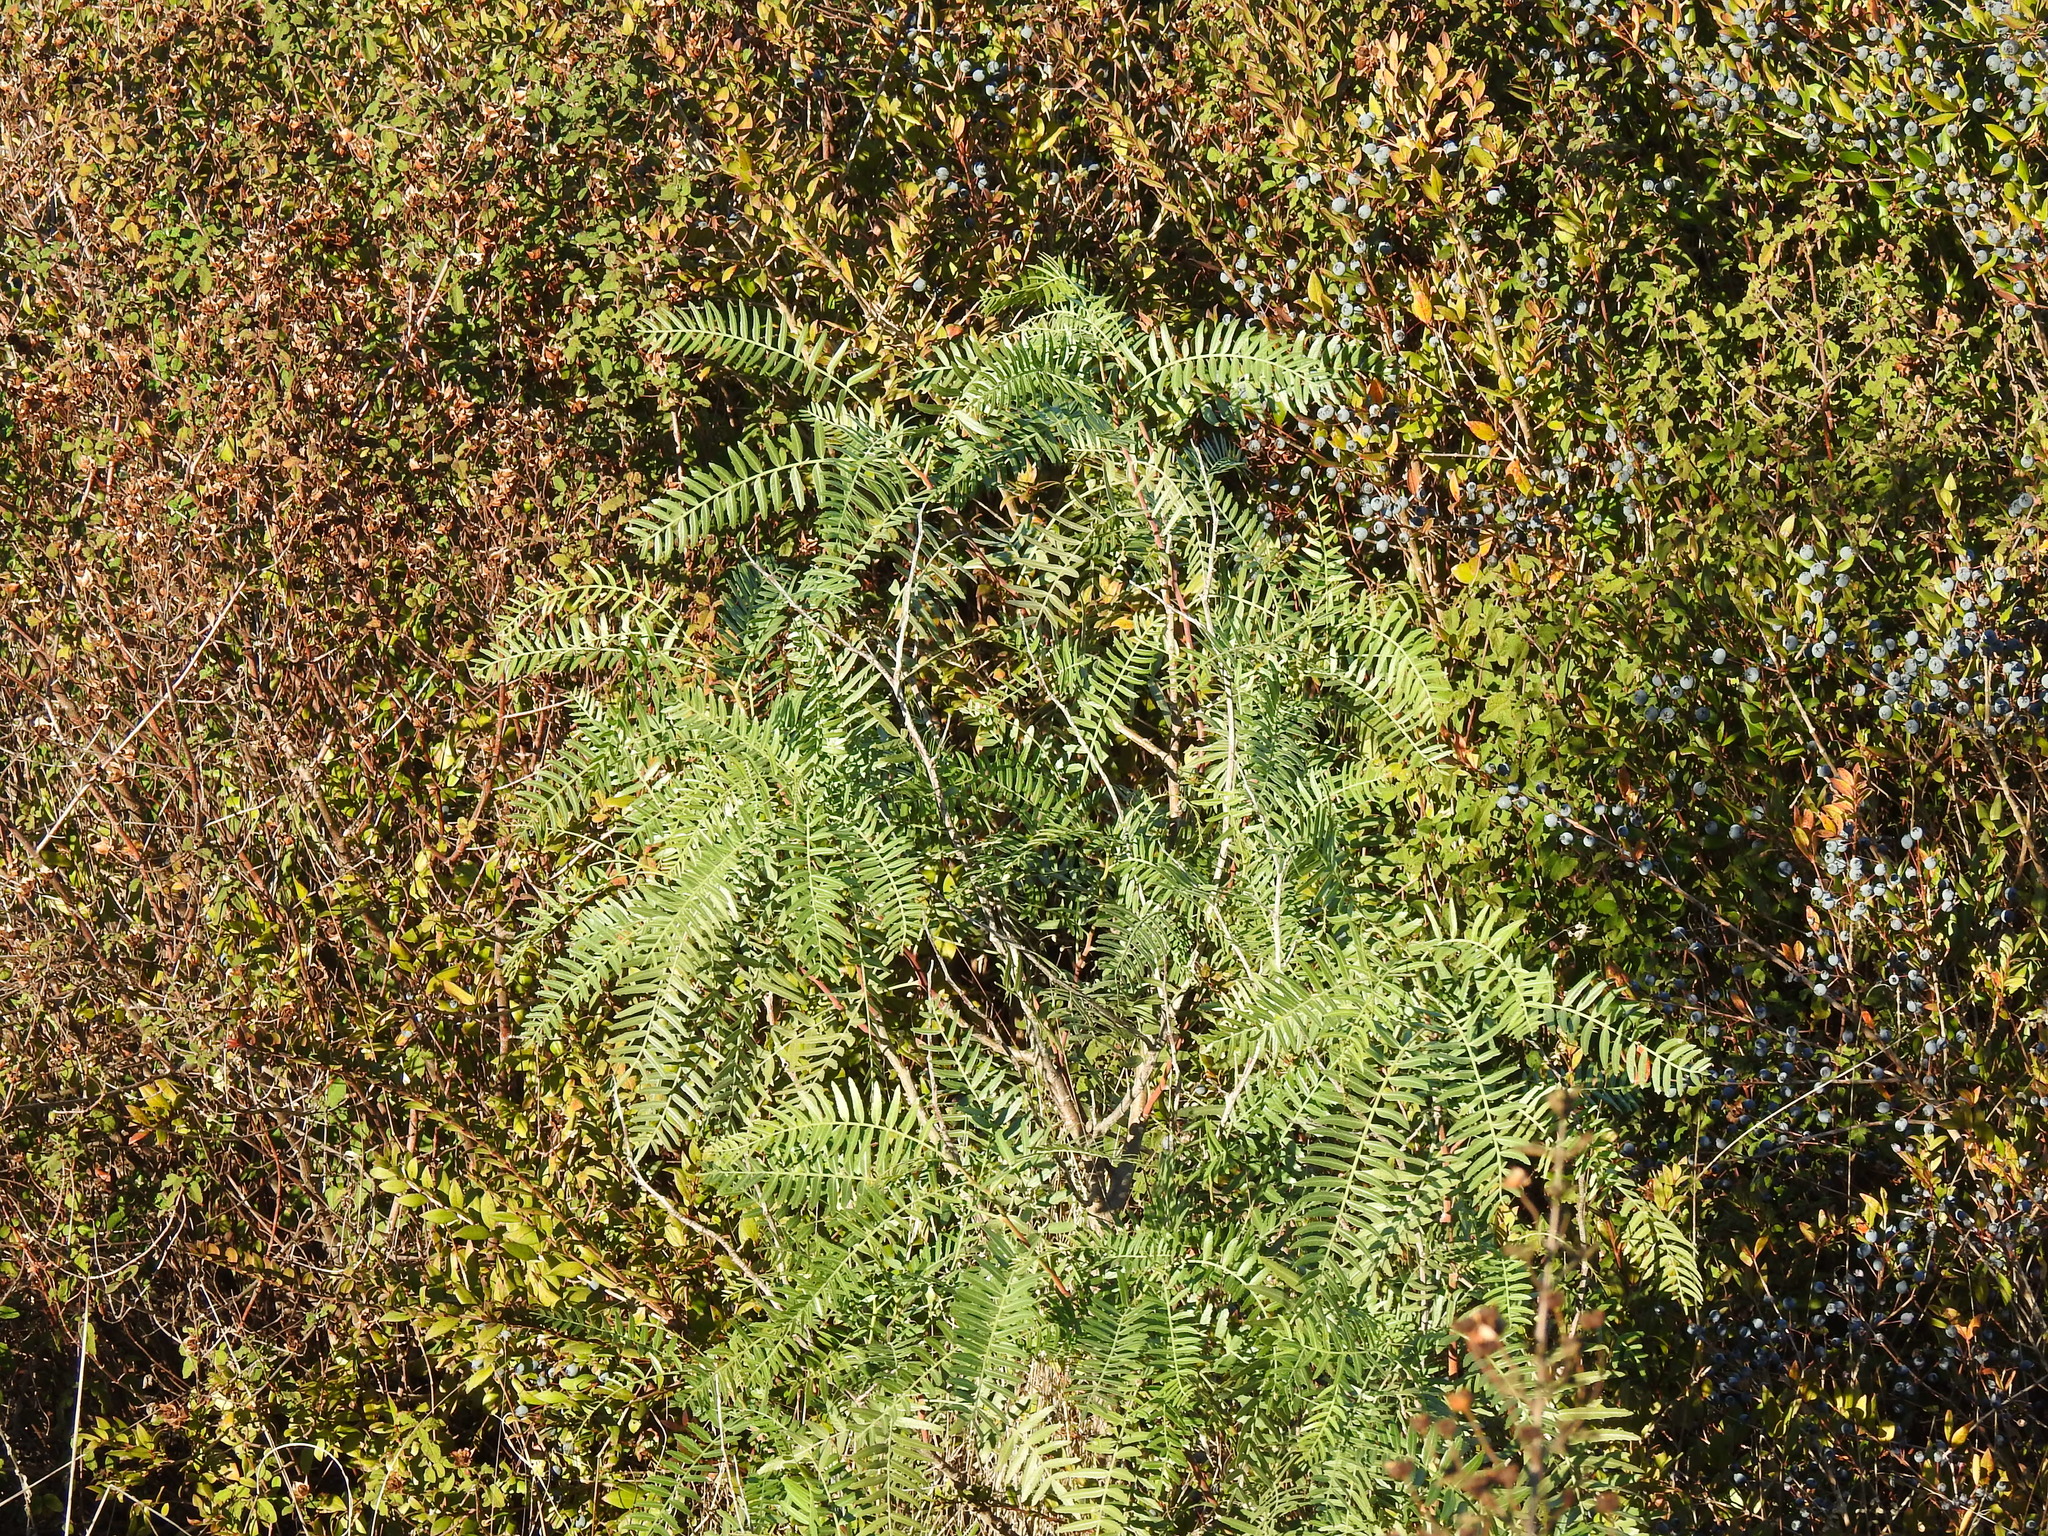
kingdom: Plantae
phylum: Tracheophyta
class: Magnoliopsida
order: Sapindales
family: Anacardiaceae
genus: Schinus
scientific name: Schinus molle
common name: Peruvian peppertree
